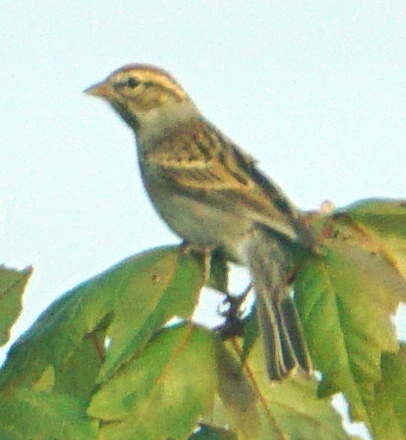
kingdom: Animalia
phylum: Chordata
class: Aves
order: Passeriformes
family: Passerellidae
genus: Spizella
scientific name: Spizella passerina
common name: Chipping sparrow
